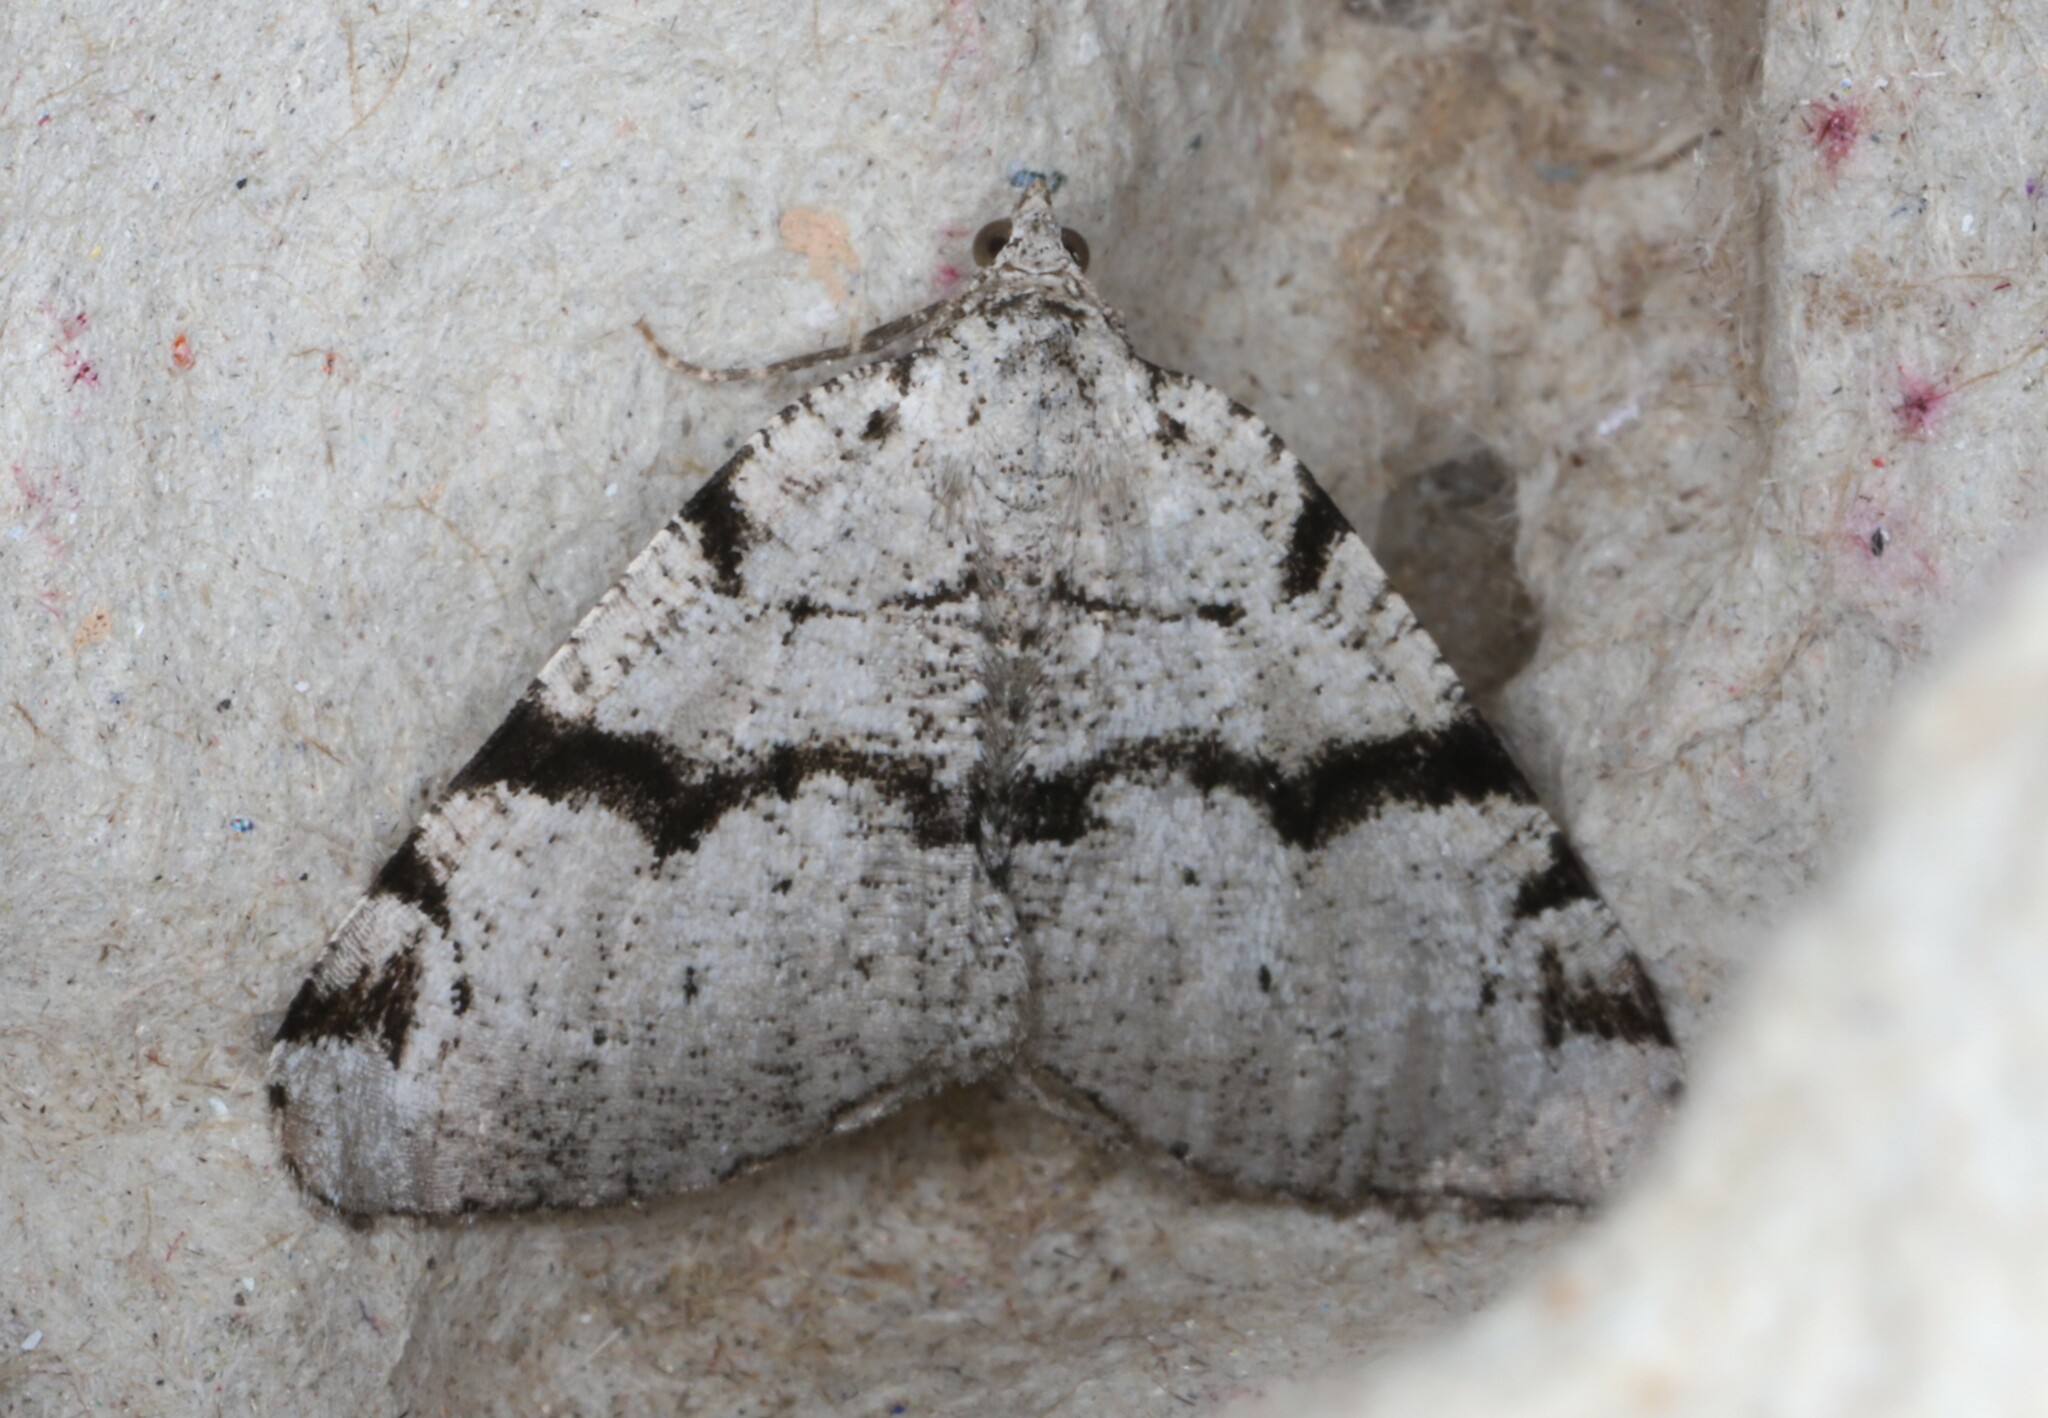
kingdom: Animalia
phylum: Arthropoda
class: Insecta
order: Lepidoptera
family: Geometridae
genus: Macaria
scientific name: Macaria bitactata
